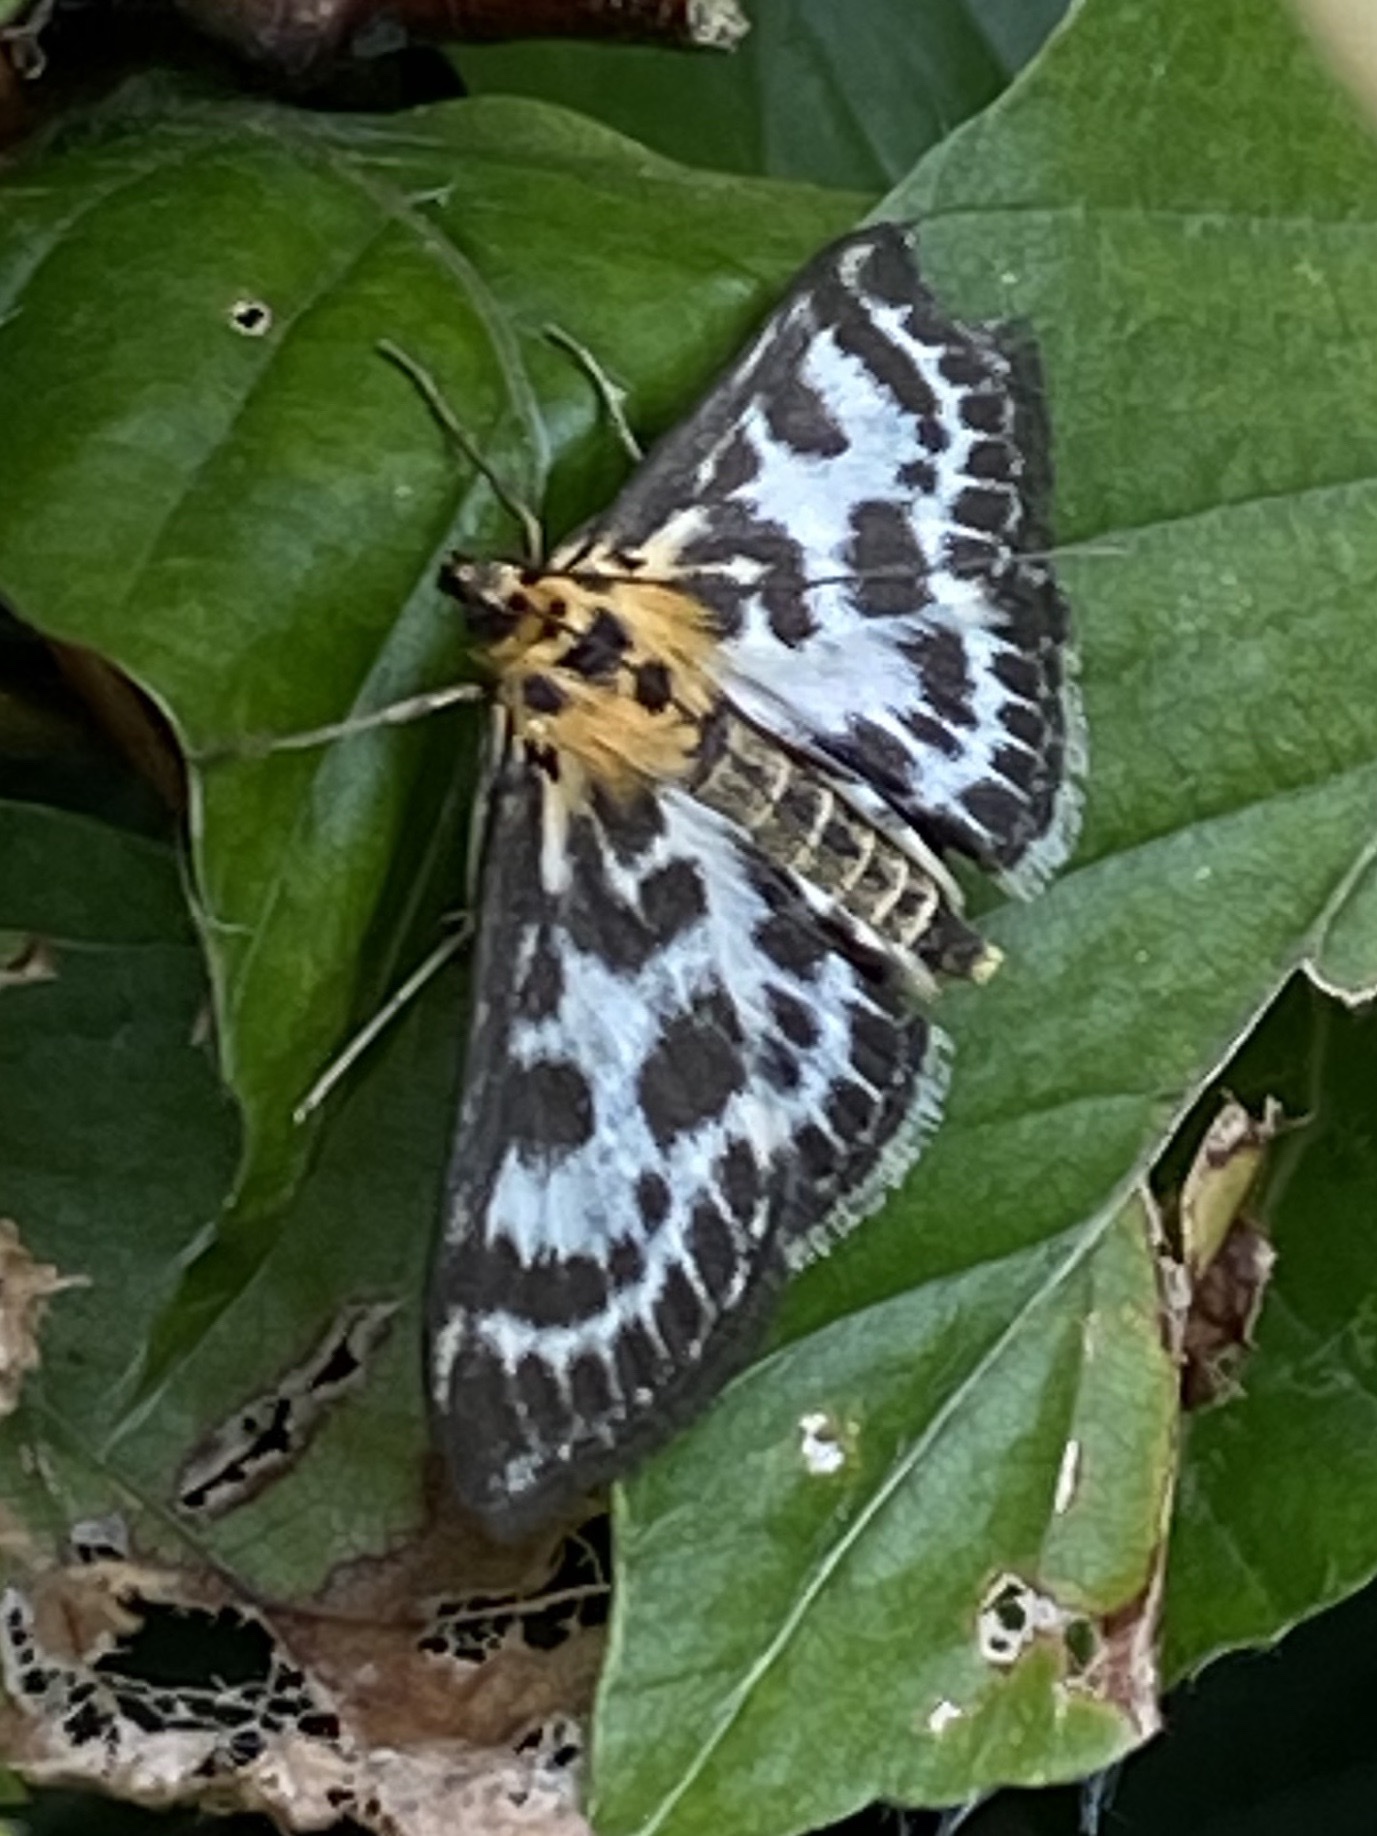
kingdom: Animalia
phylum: Arthropoda
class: Insecta
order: Lepidoptera
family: Crambidae
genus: Anania
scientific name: Anania hortulata
